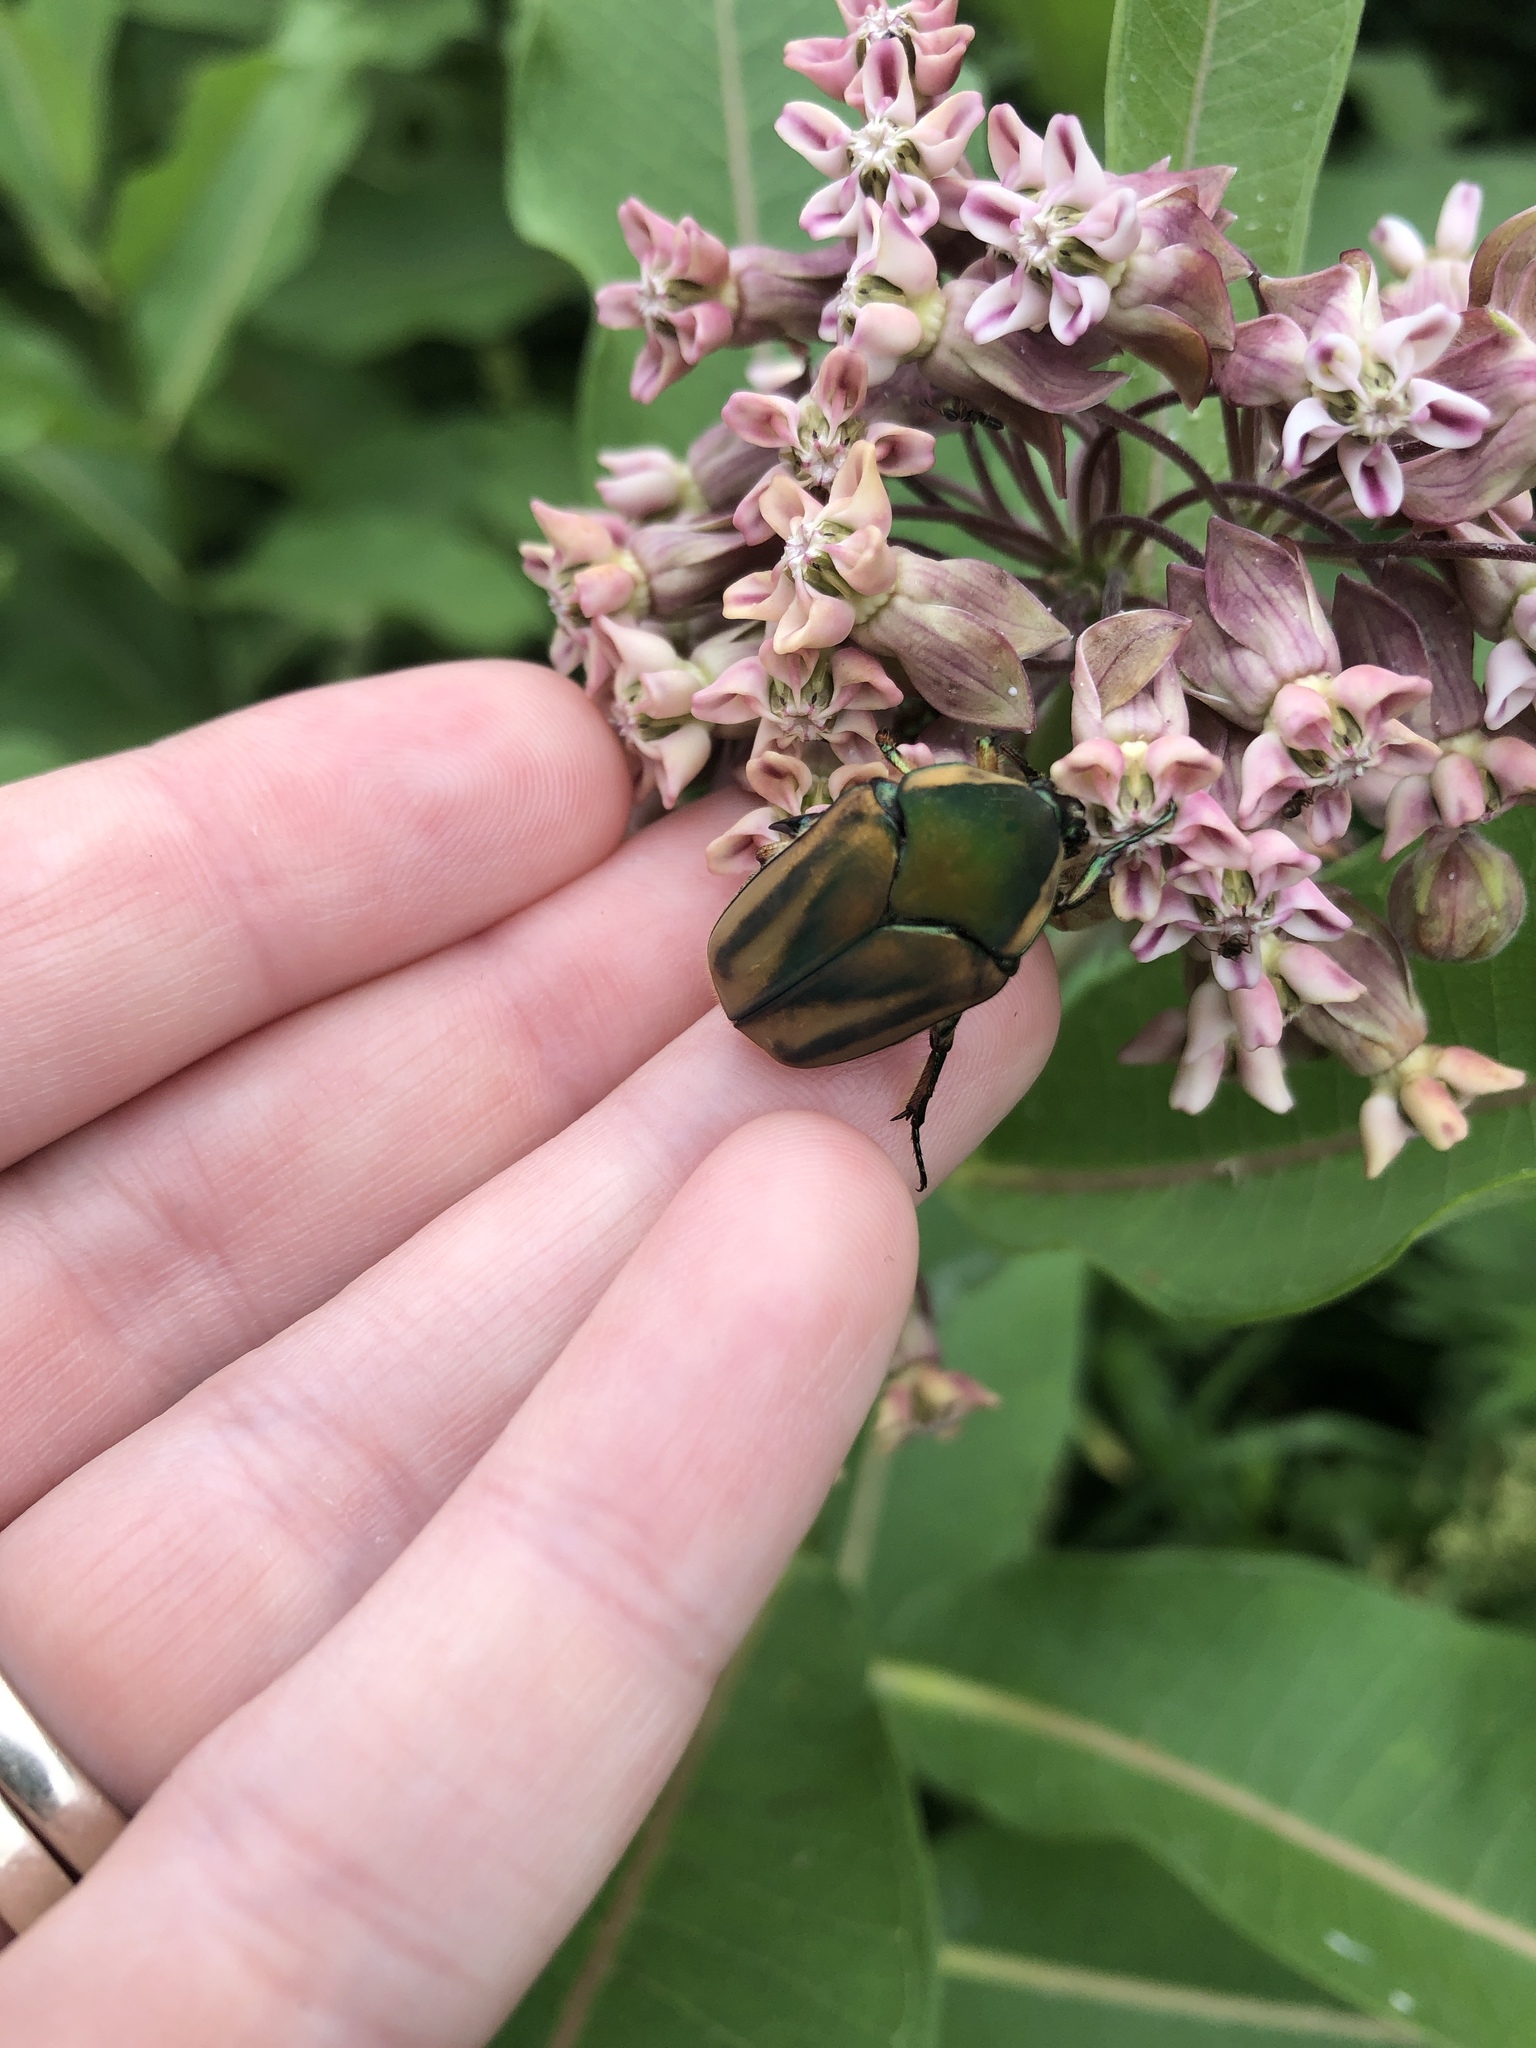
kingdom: Animalia
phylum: Arthropoda
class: Insecta
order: Coleoptera
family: Scarabaeidae
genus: Cotinis
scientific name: Cotinis nitida
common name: Common green june beetle
